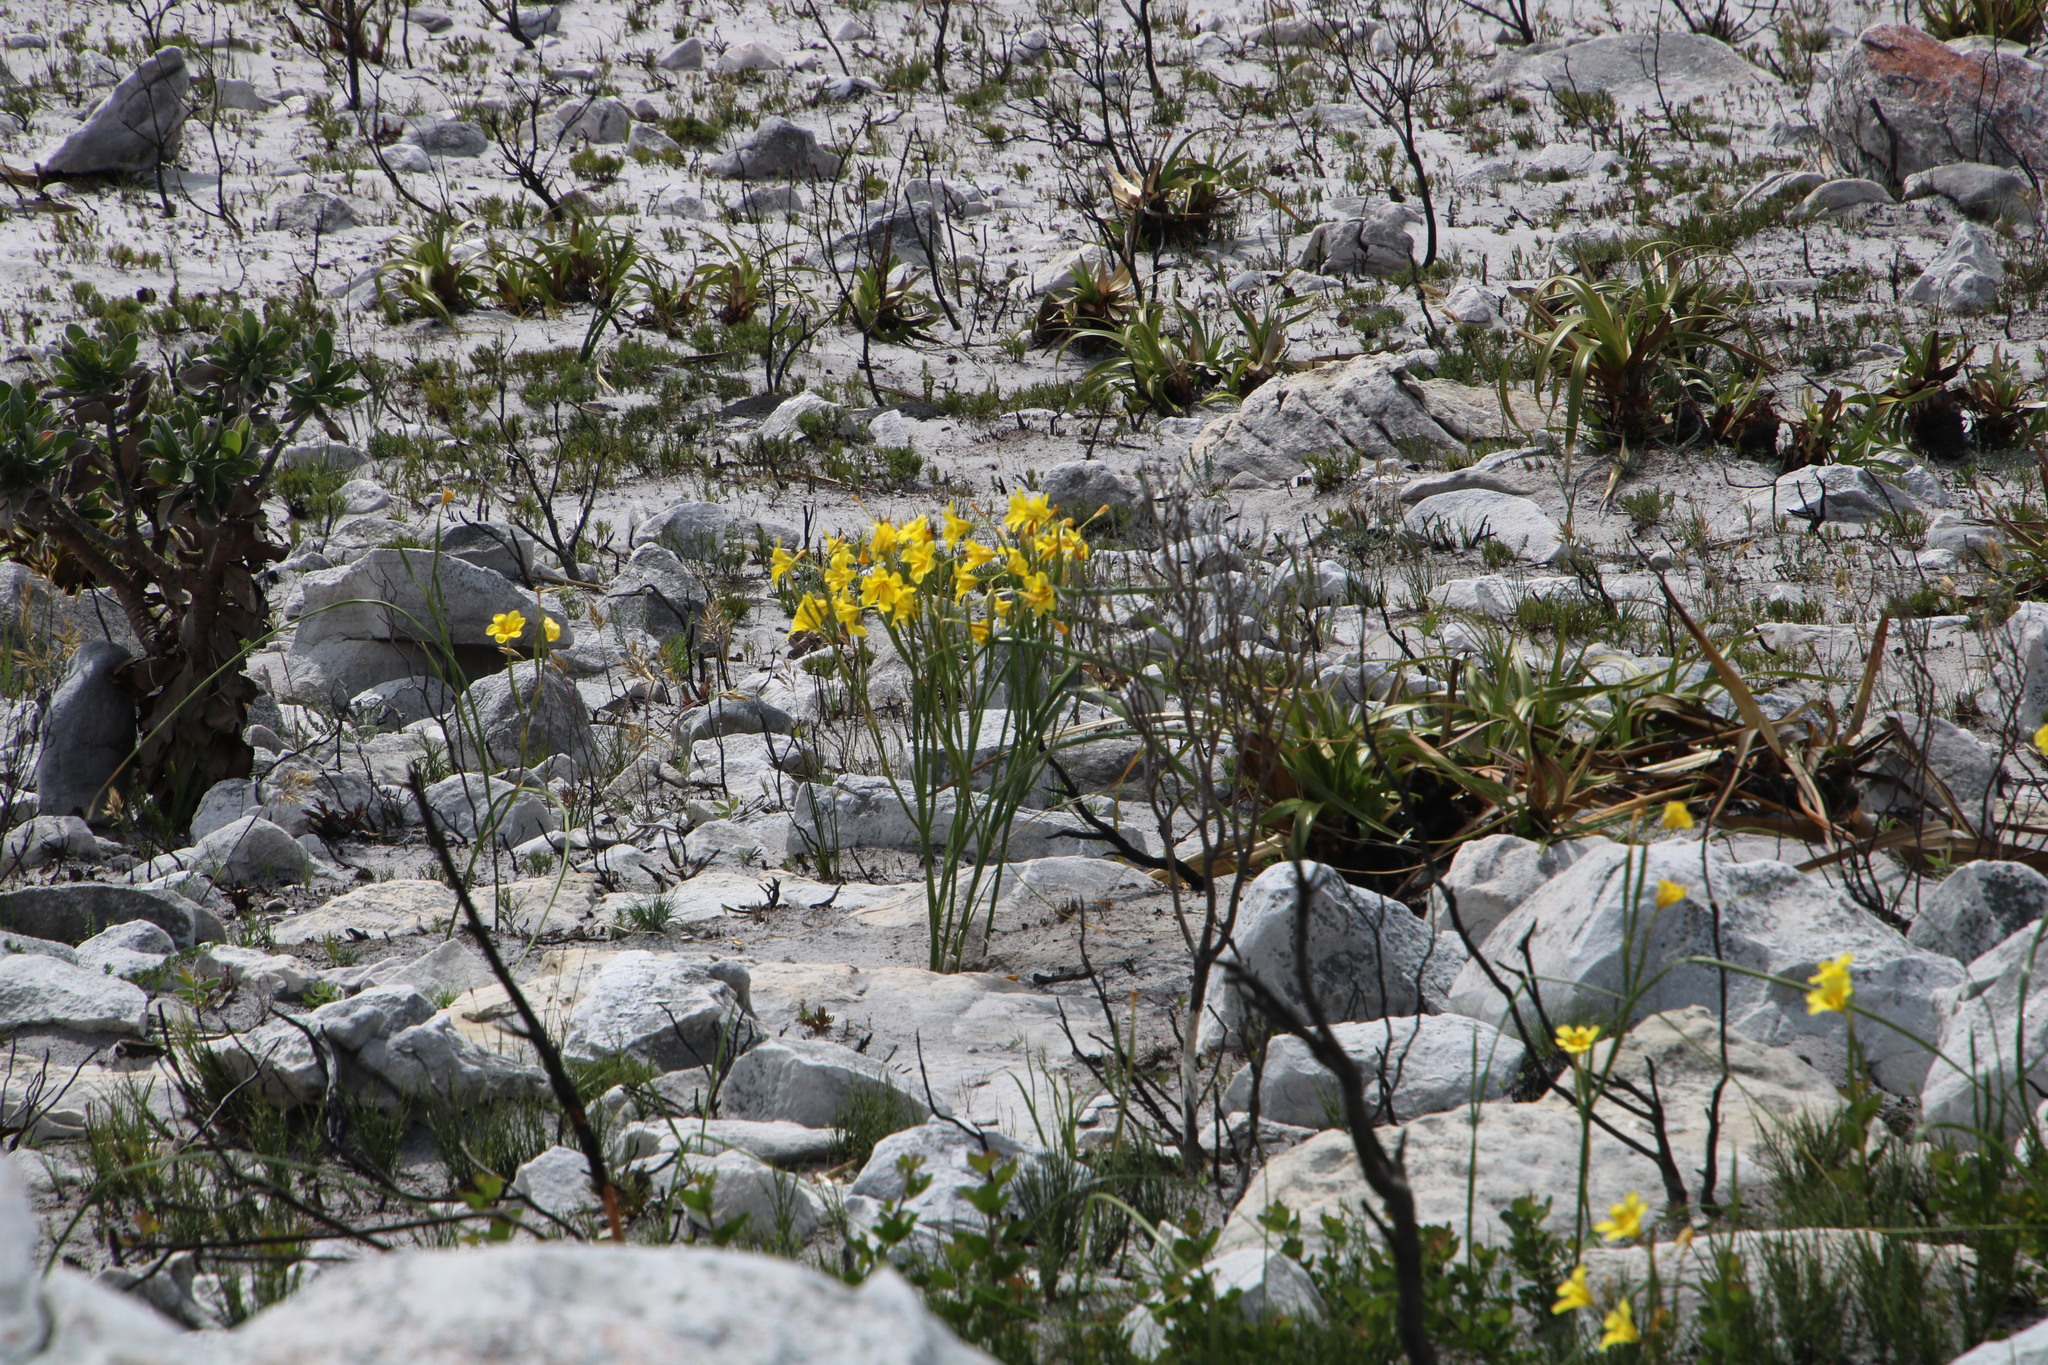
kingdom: Plantae
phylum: Tracheophyta
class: Liliopsida
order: Asparagales
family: Iridaceae
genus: Moraea
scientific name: Moraea ochroleuca
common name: Red tulp
